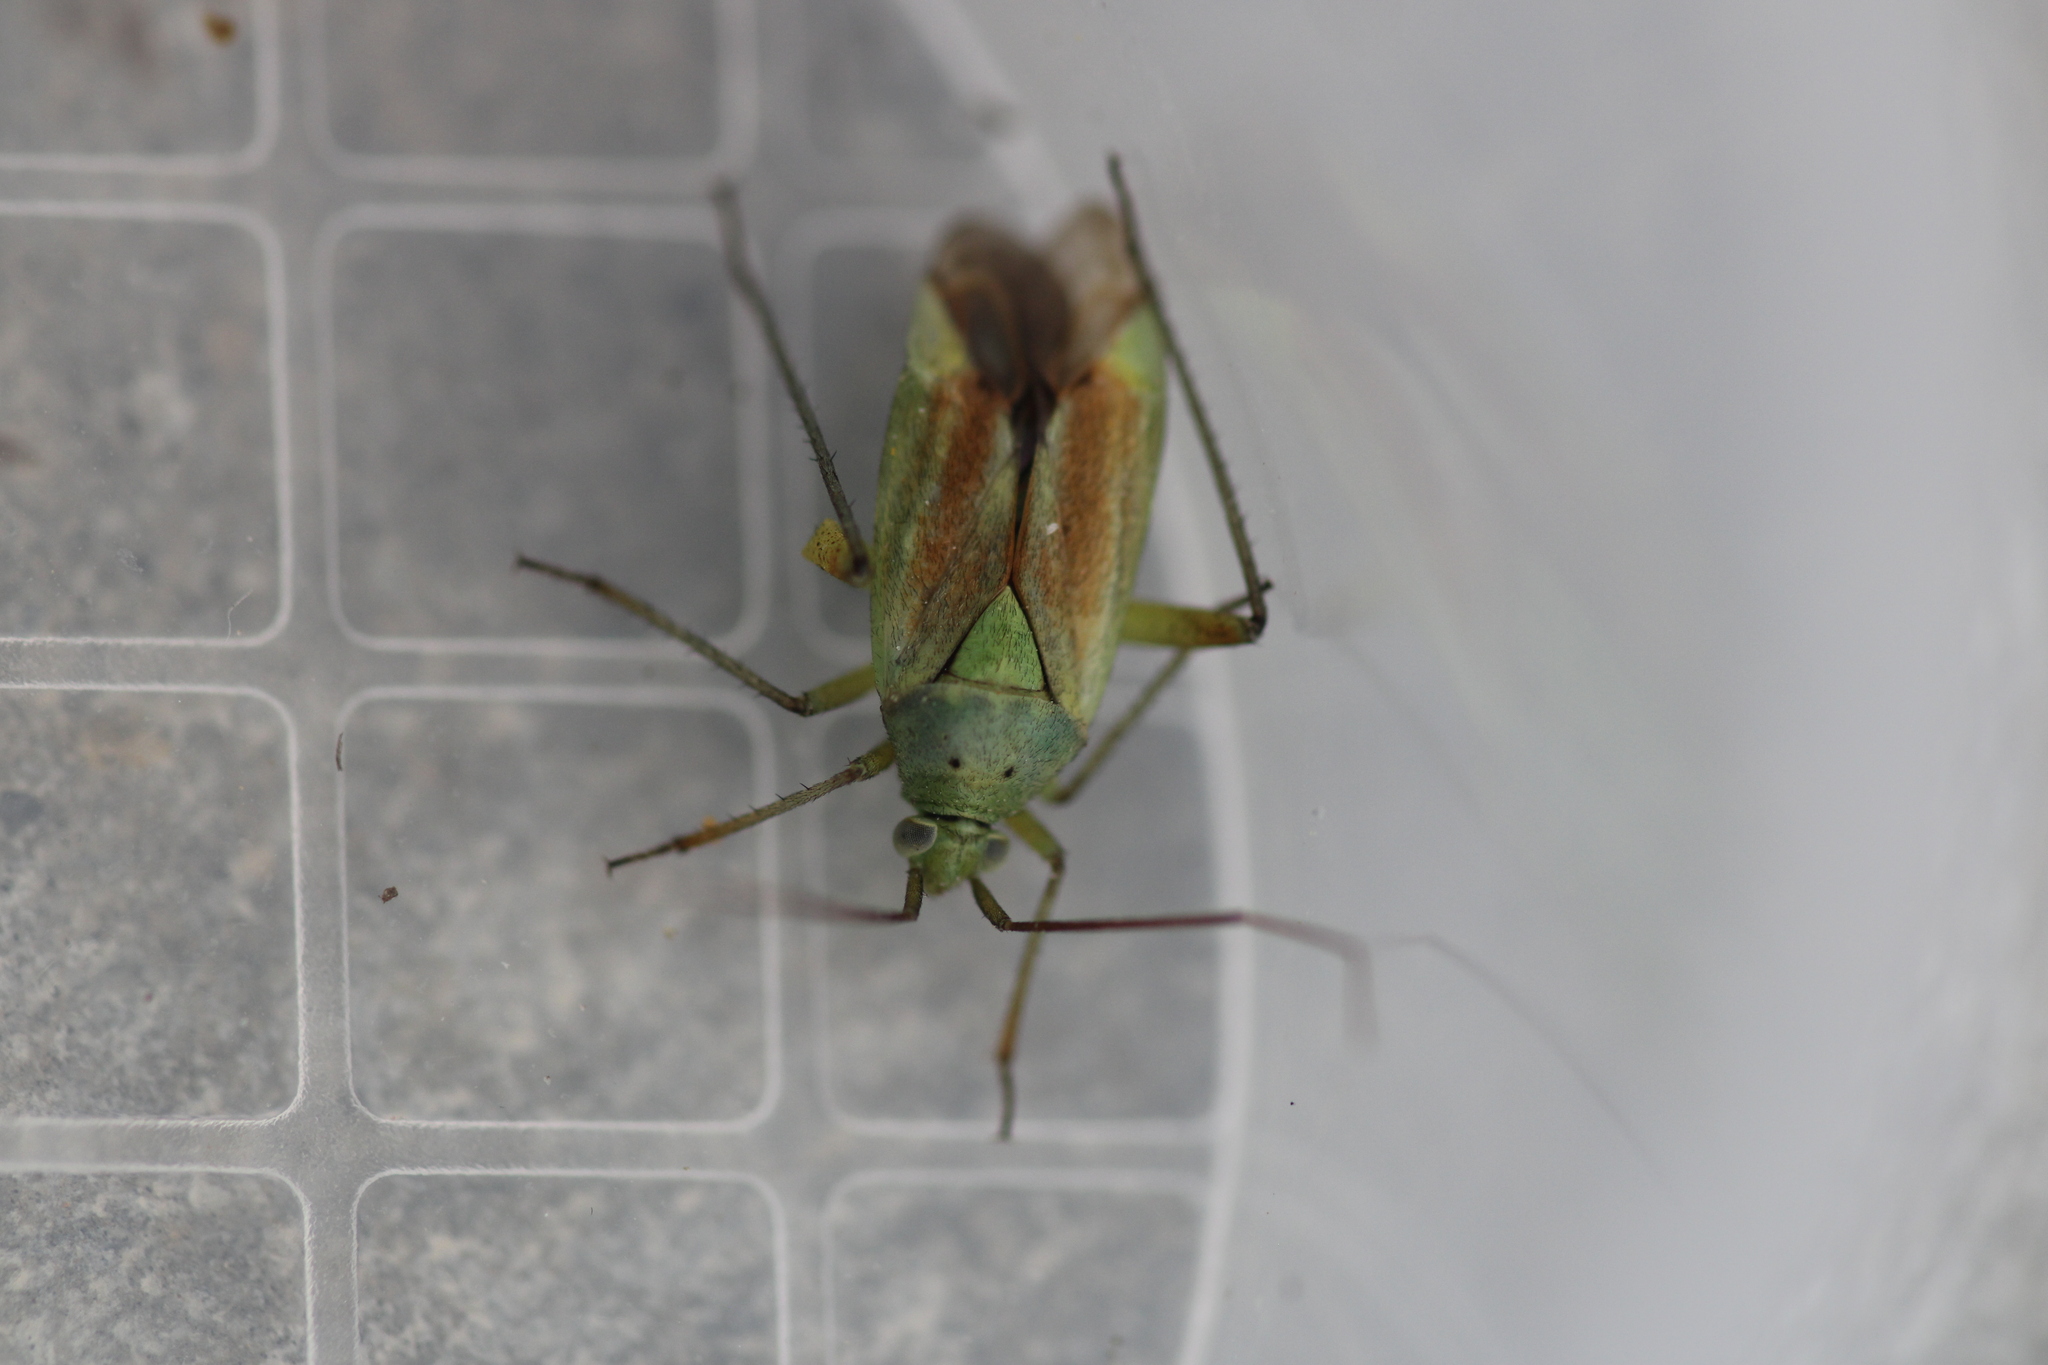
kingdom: Animalia
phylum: Arthropoda
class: Insecta
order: Hemiptera
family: Miridae
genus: Closterotomus
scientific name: Closterotomus norvegicus
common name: Plant bug
